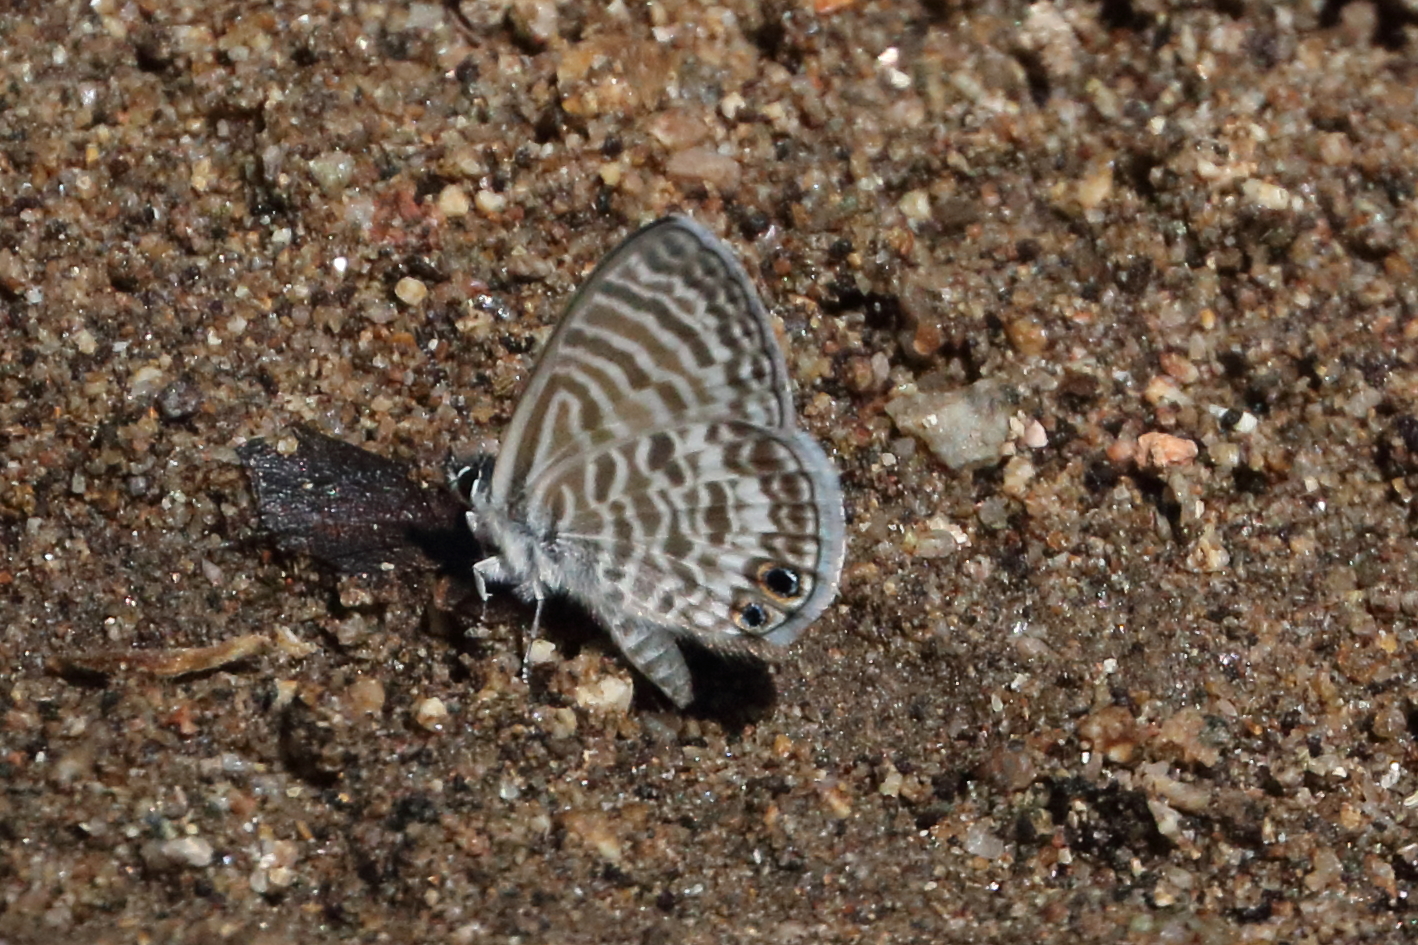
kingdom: Animalia
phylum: Arthropoda
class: Insecta
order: Lepidoptera
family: Lycaenidae
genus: Leptotes
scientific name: Leptotes marina
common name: Marine blue
